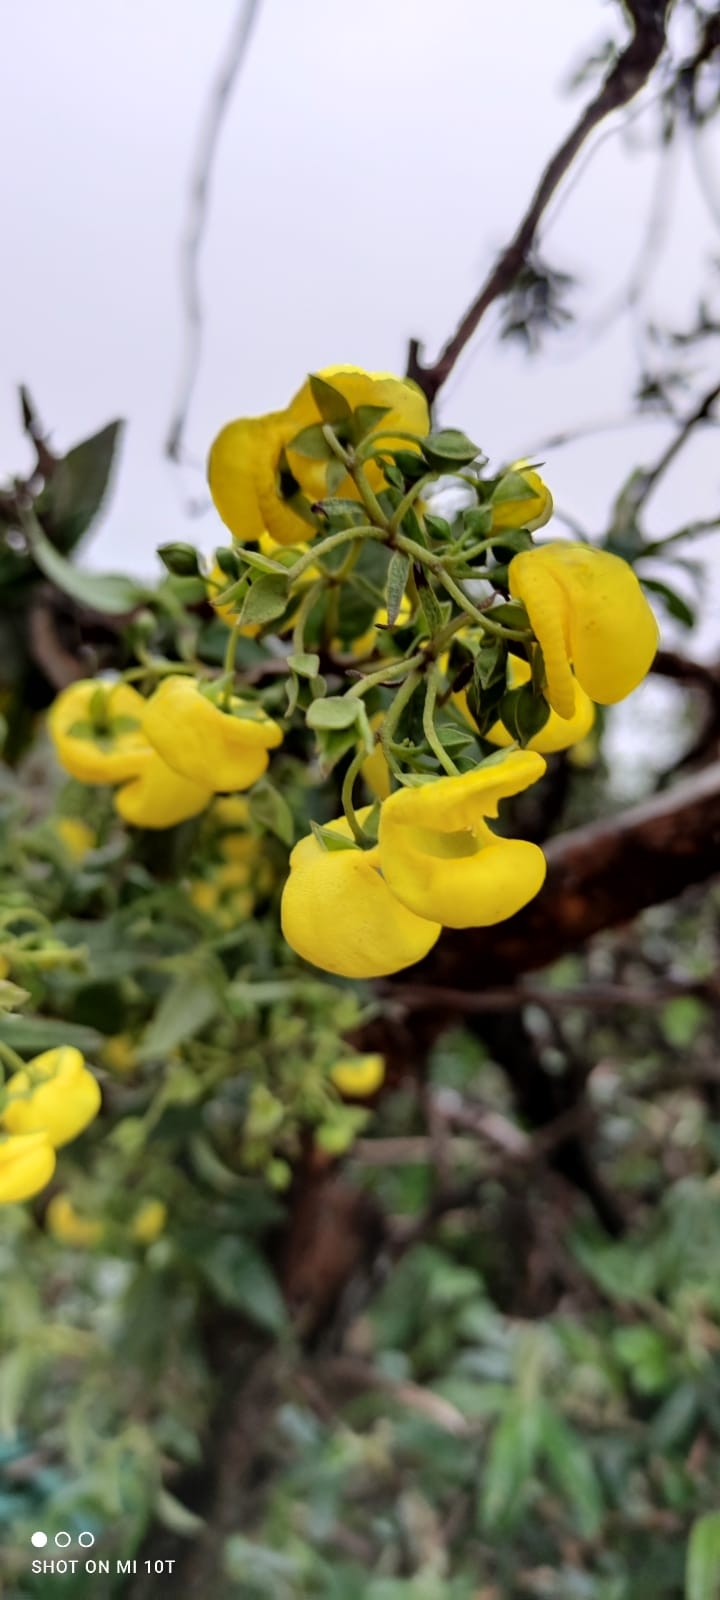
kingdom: Plantae
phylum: Tracheophyta
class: Magnoliopsida
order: Lamiales
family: Calceolariaceae
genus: Calceolaria
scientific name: Calceolaria nivalis
